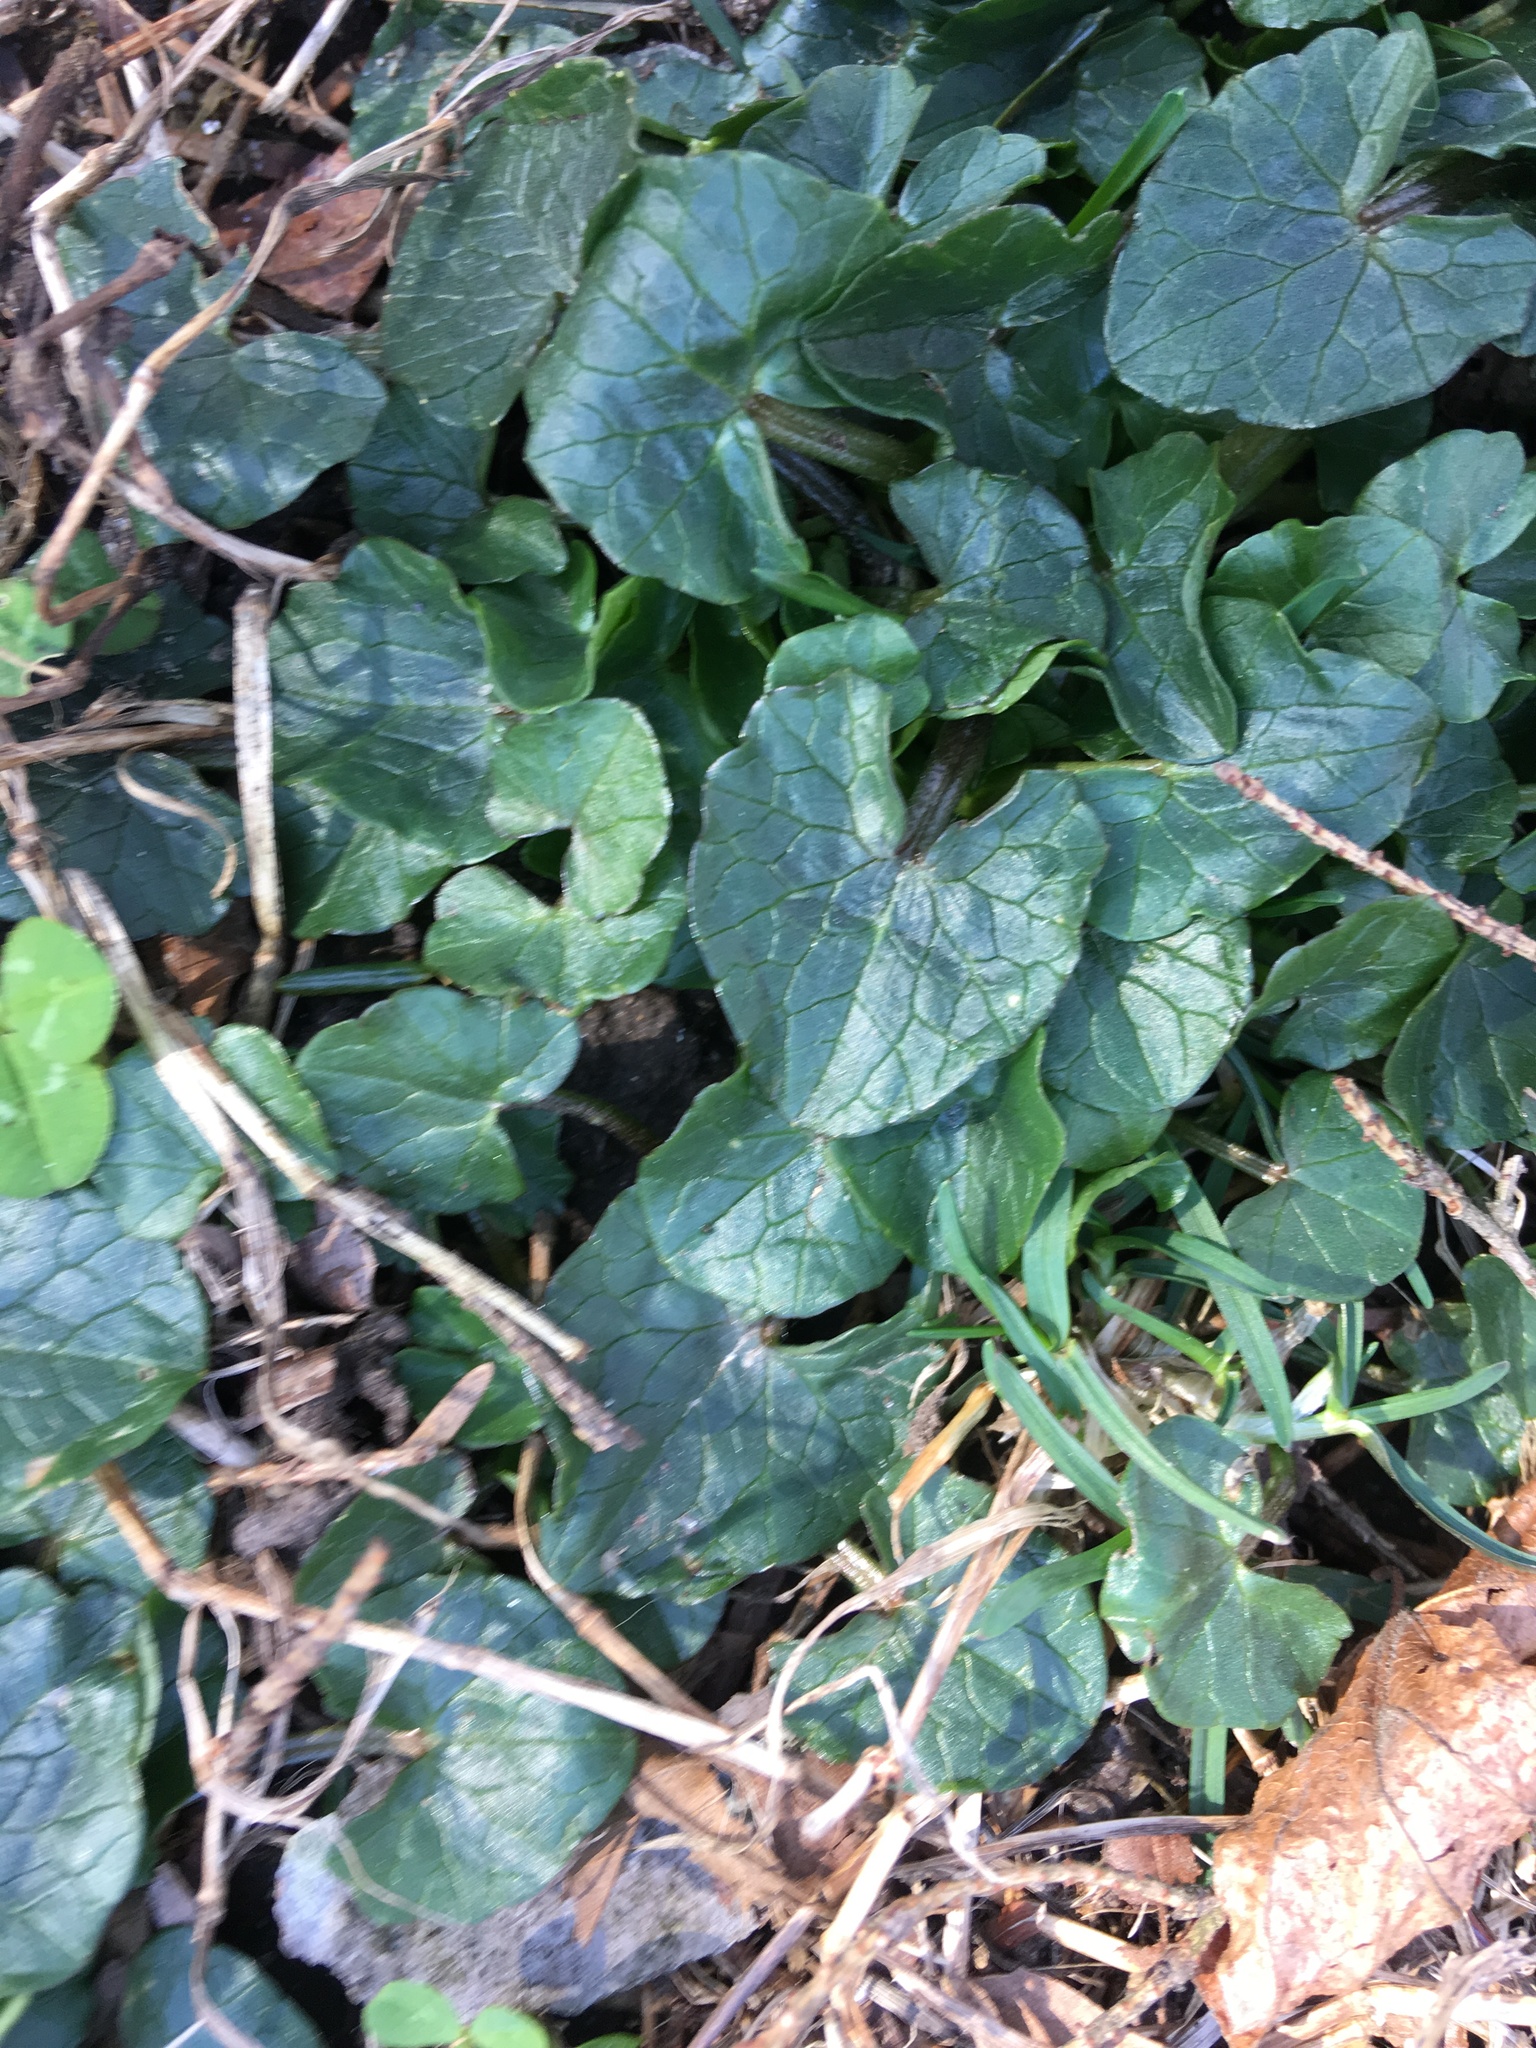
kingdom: Plantae
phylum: Tracheophyta
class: Magnoliopsida
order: Ranunculales
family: Ranunculaceae
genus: Ficaria
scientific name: Ficaria verna
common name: Lesser celandine
